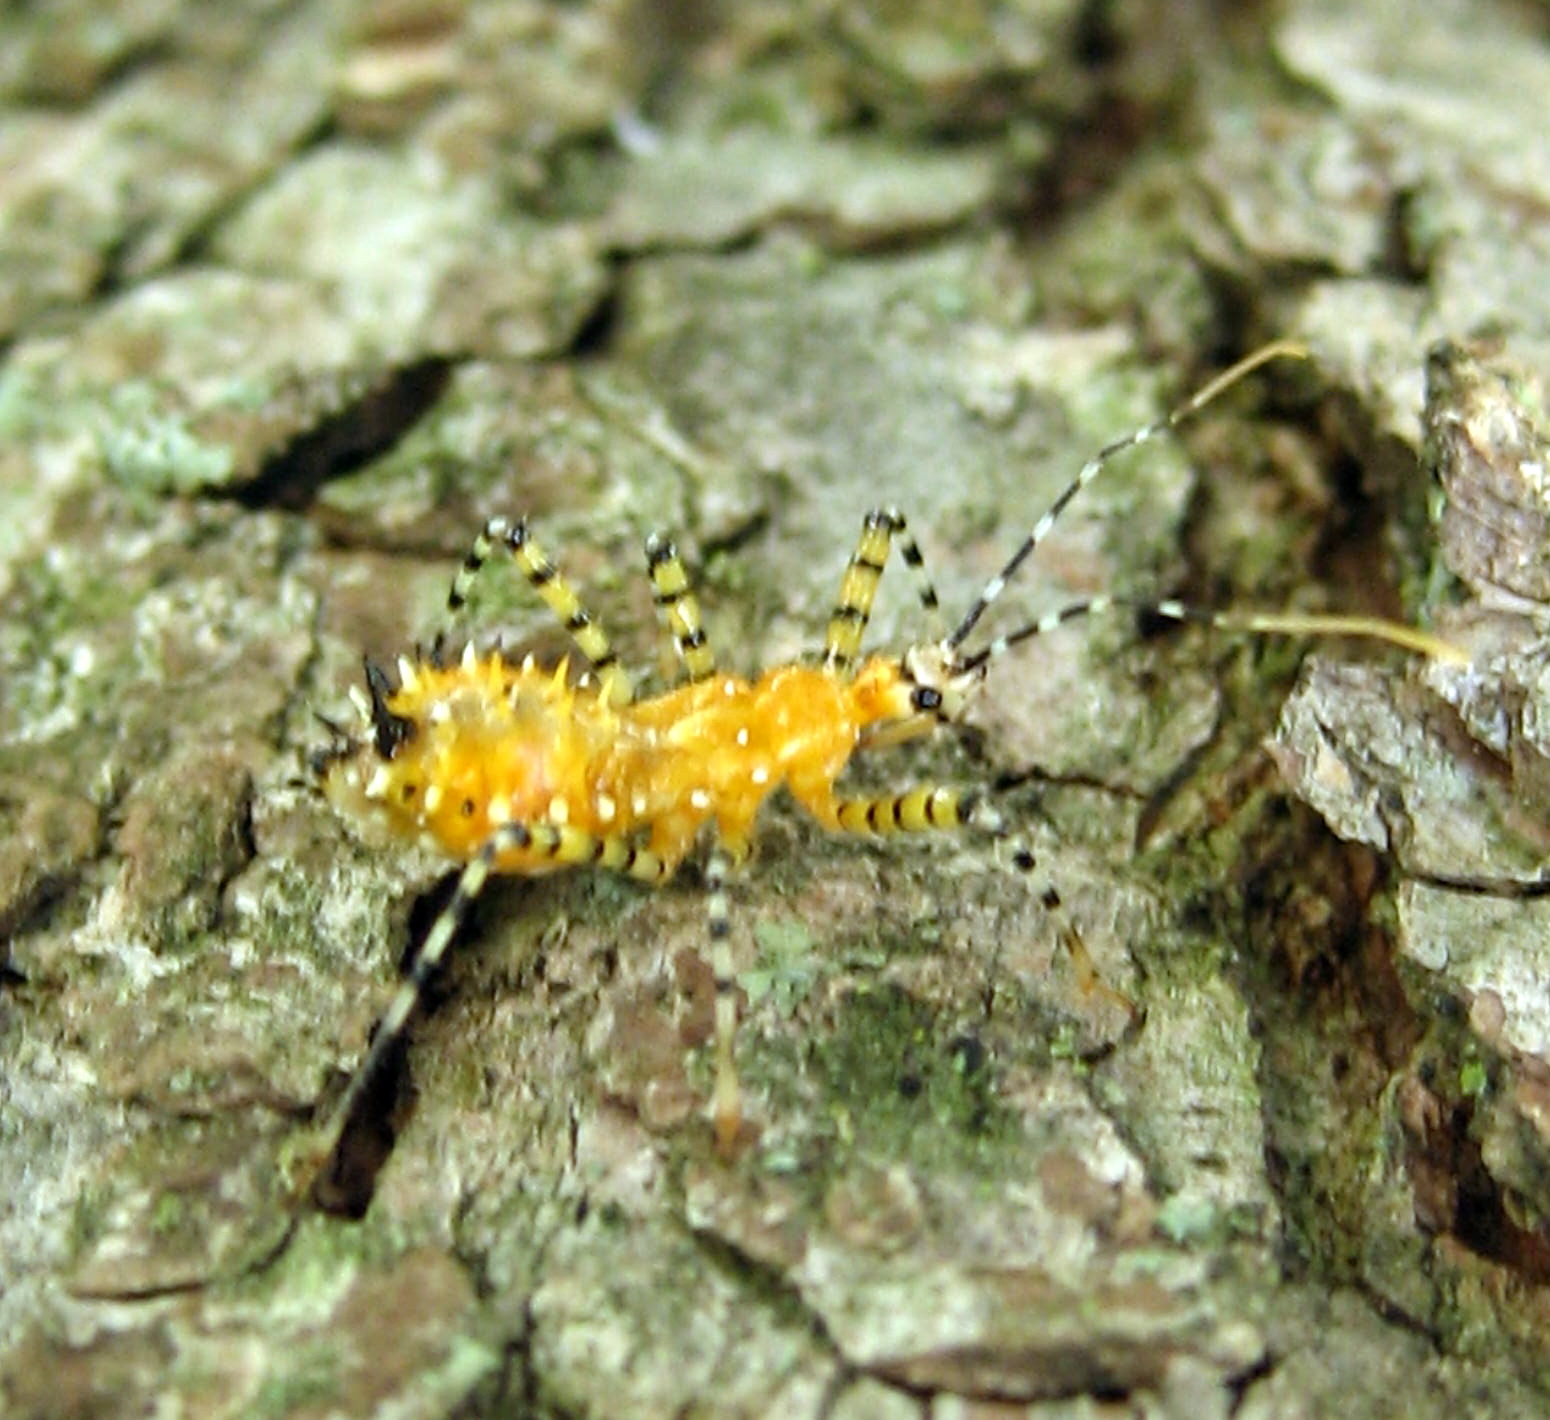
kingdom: Animalia
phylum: Arthropoda
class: Insecta
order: Hemiptera
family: Reduviidae
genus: Pselliopus
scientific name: Pselliopus barberi
